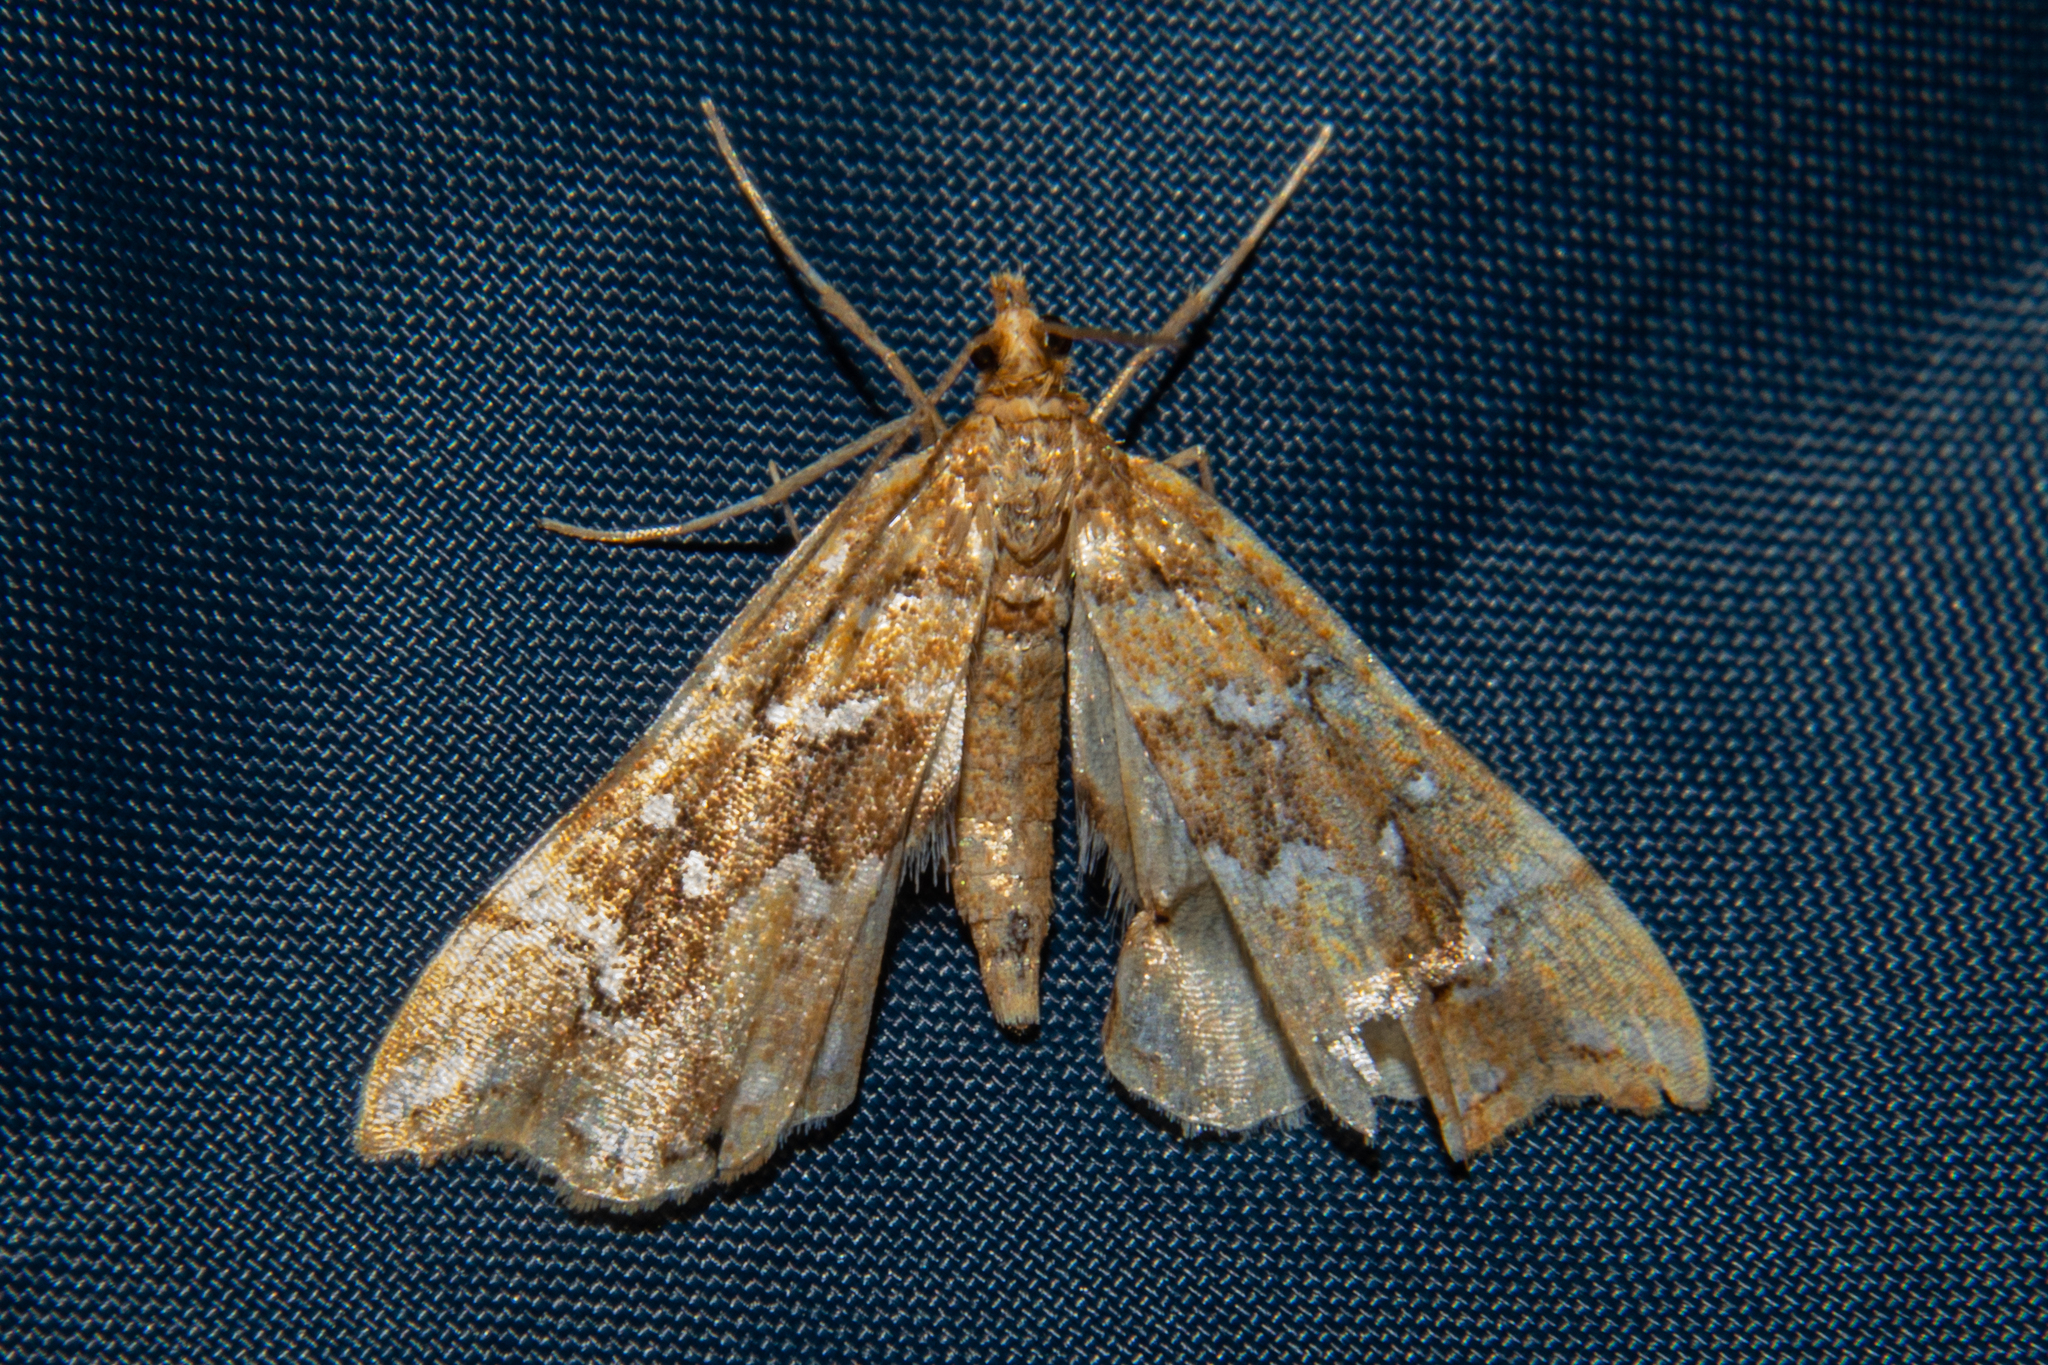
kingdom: Animalia
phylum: Arthropoda
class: Insecta
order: Lepidoptera
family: Pyralidae
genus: Musotima
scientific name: Musotima nitidalis
